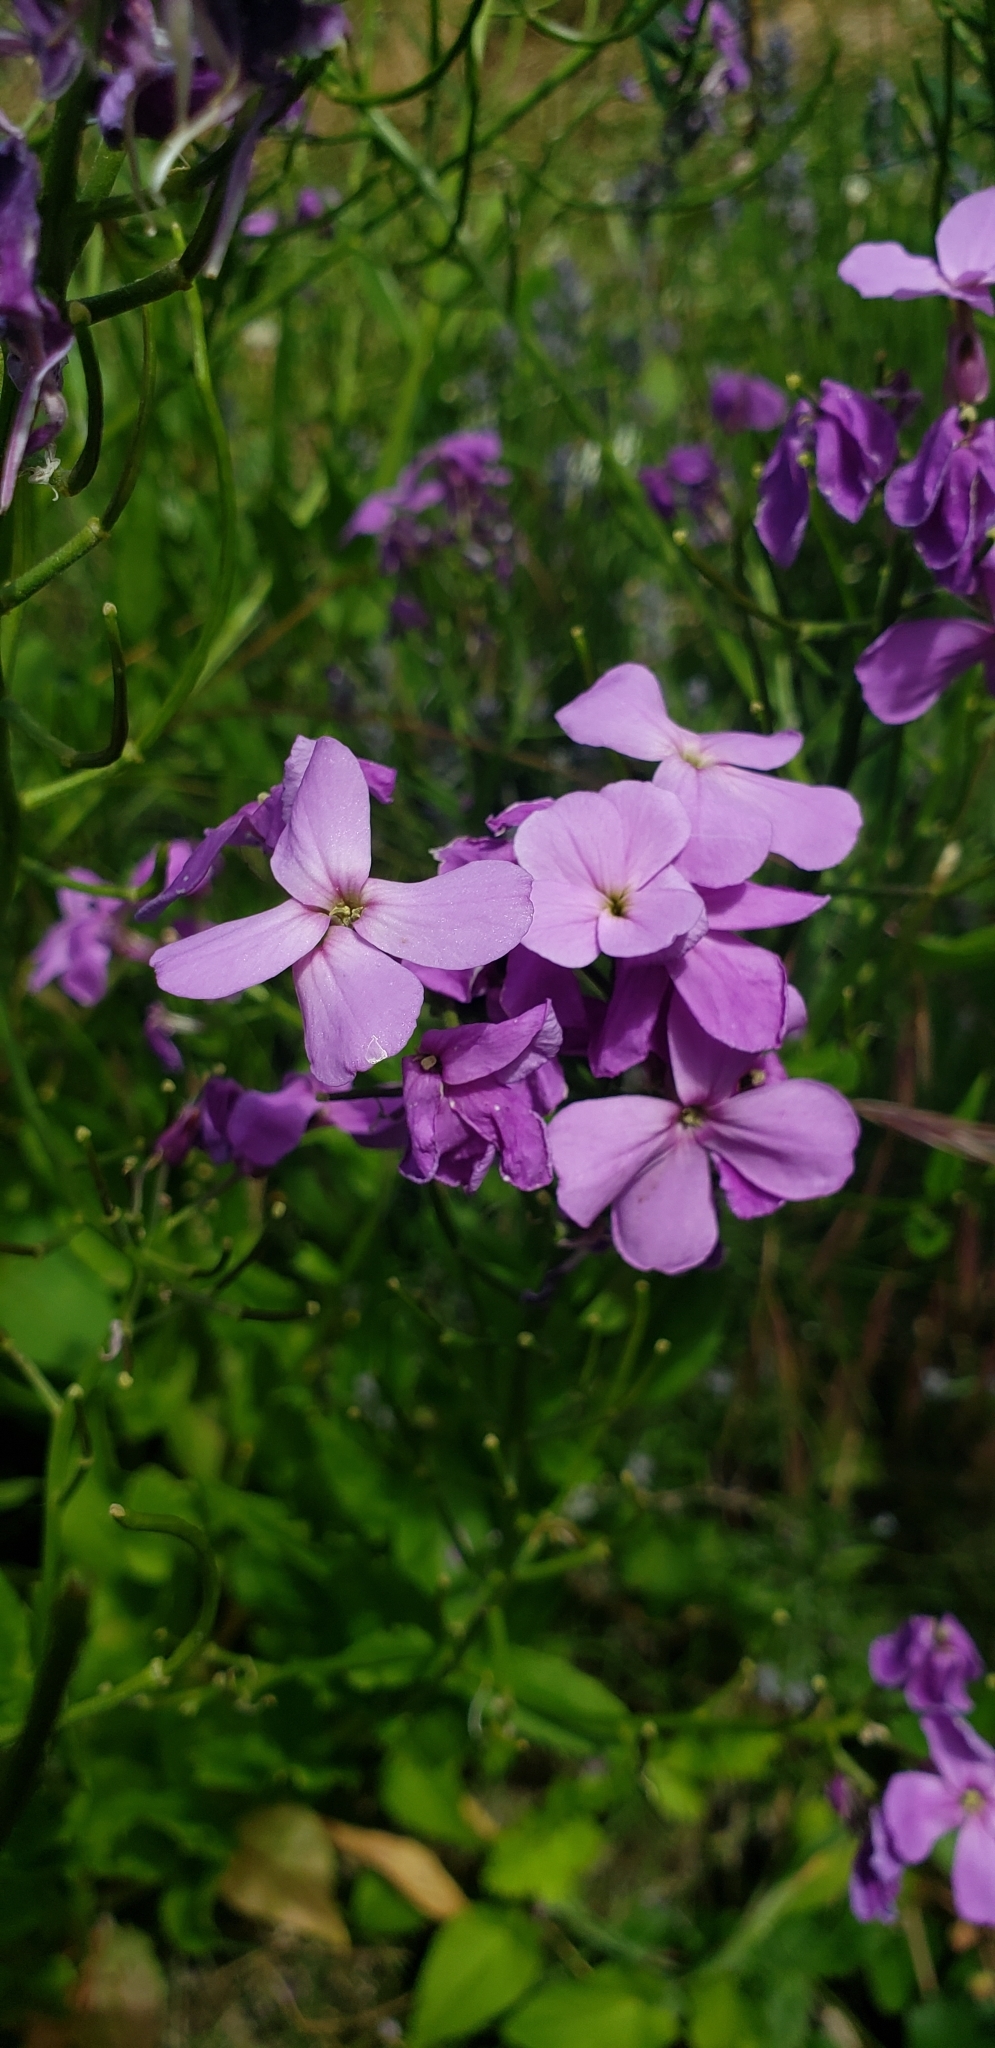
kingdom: Plantae
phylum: Tracheophyta
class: Magnoliopsida
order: Brassicales
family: Brassicaceae
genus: Hesperis
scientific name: Hesperis matronalis
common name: Dame's-violet
